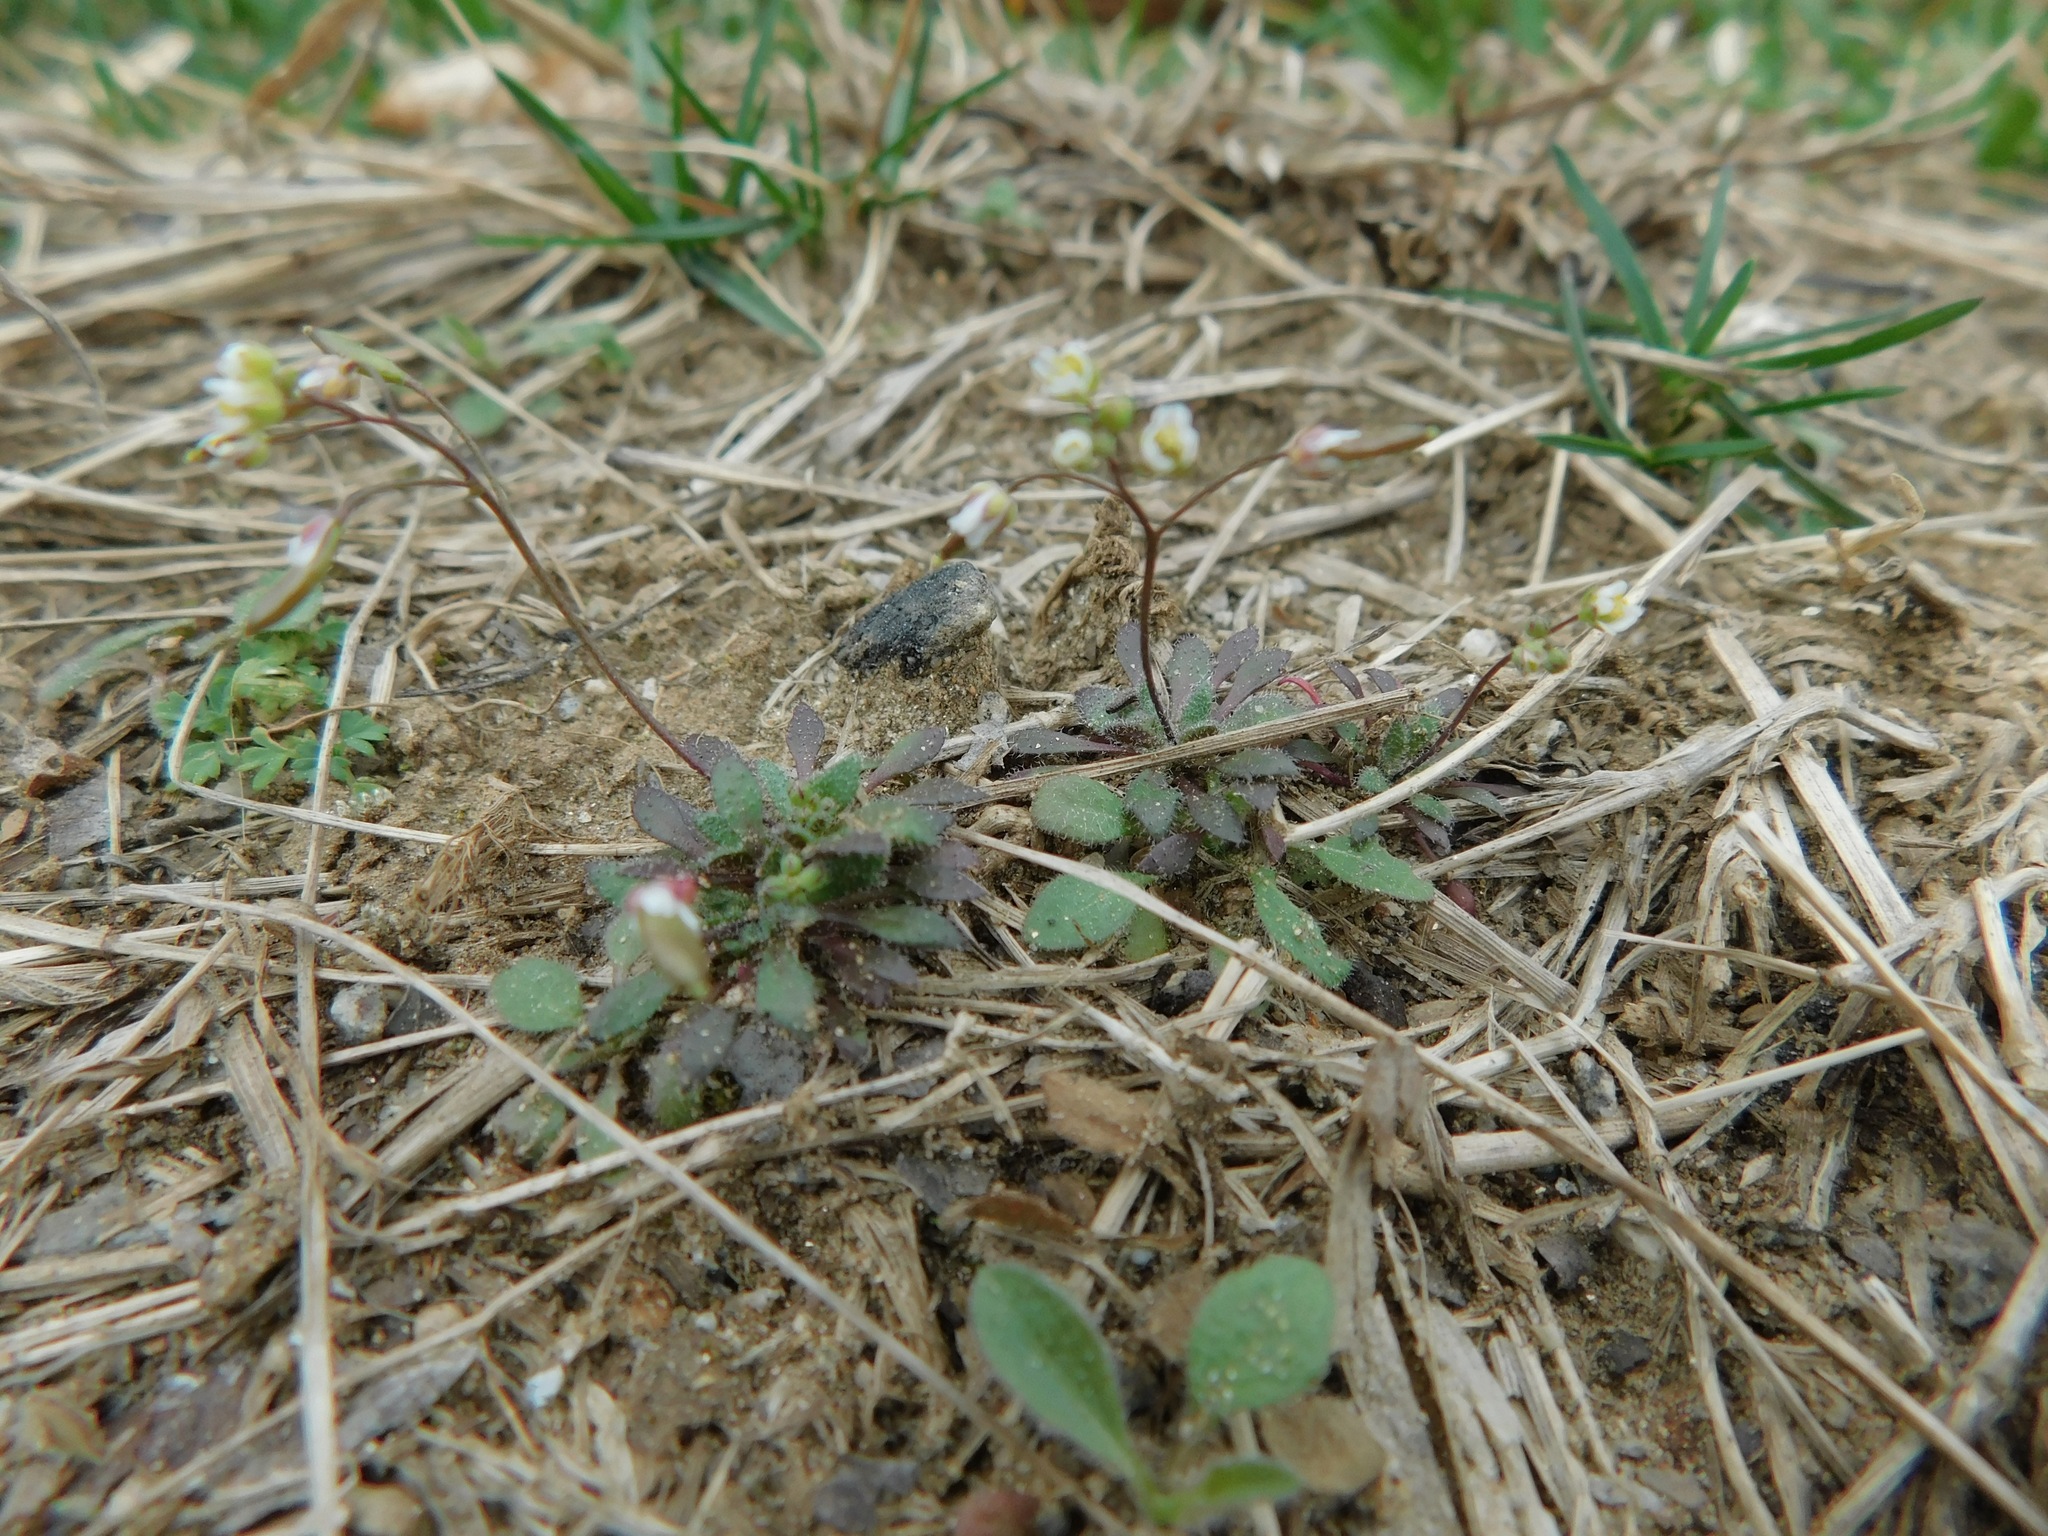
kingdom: Plantae
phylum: Tracheophyta
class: Magnoliopsida
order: Brassicales
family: Brassicaceae
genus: Draba
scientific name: Draba verna
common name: Spring draba
